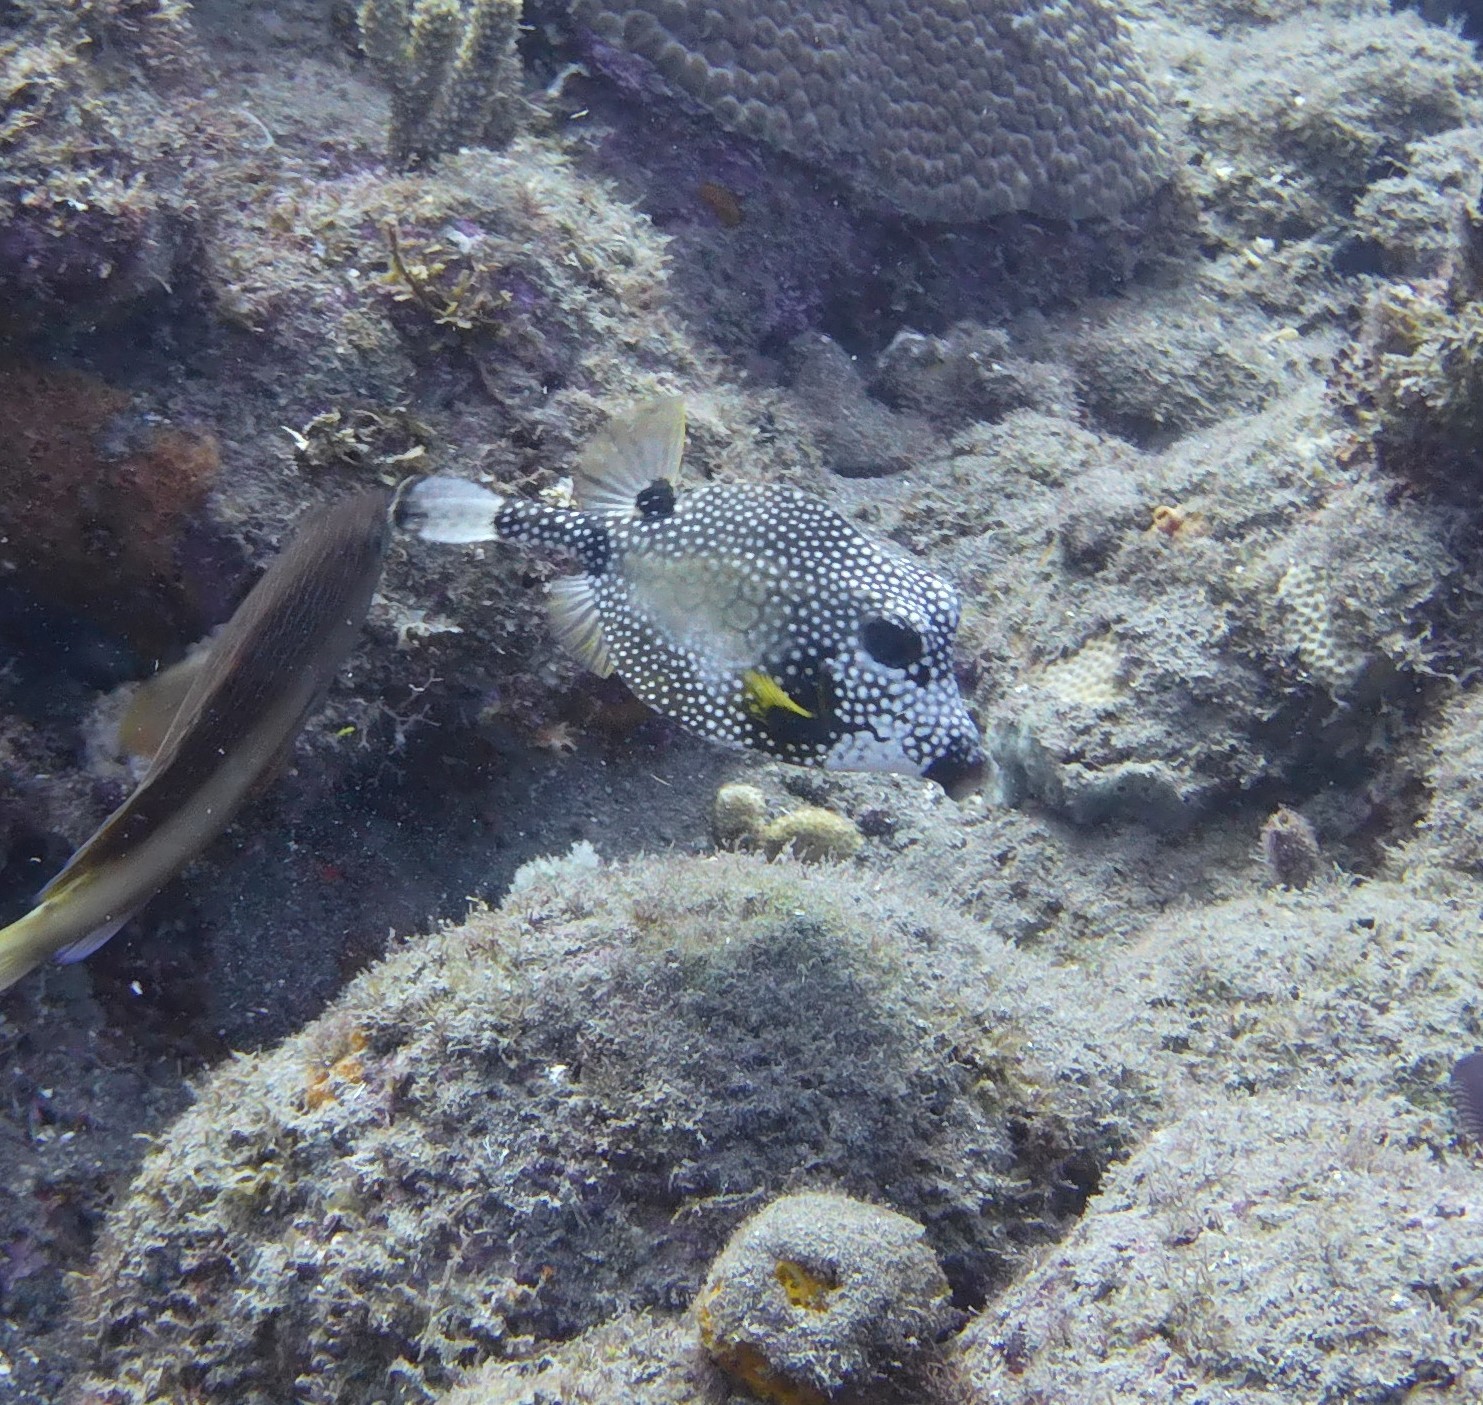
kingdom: Animalia
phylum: Chordata
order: Tetraodontiformes
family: Ostraciidae
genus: Lactophrys
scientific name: Lactophrys triqueter
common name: Smooth trunkfish
